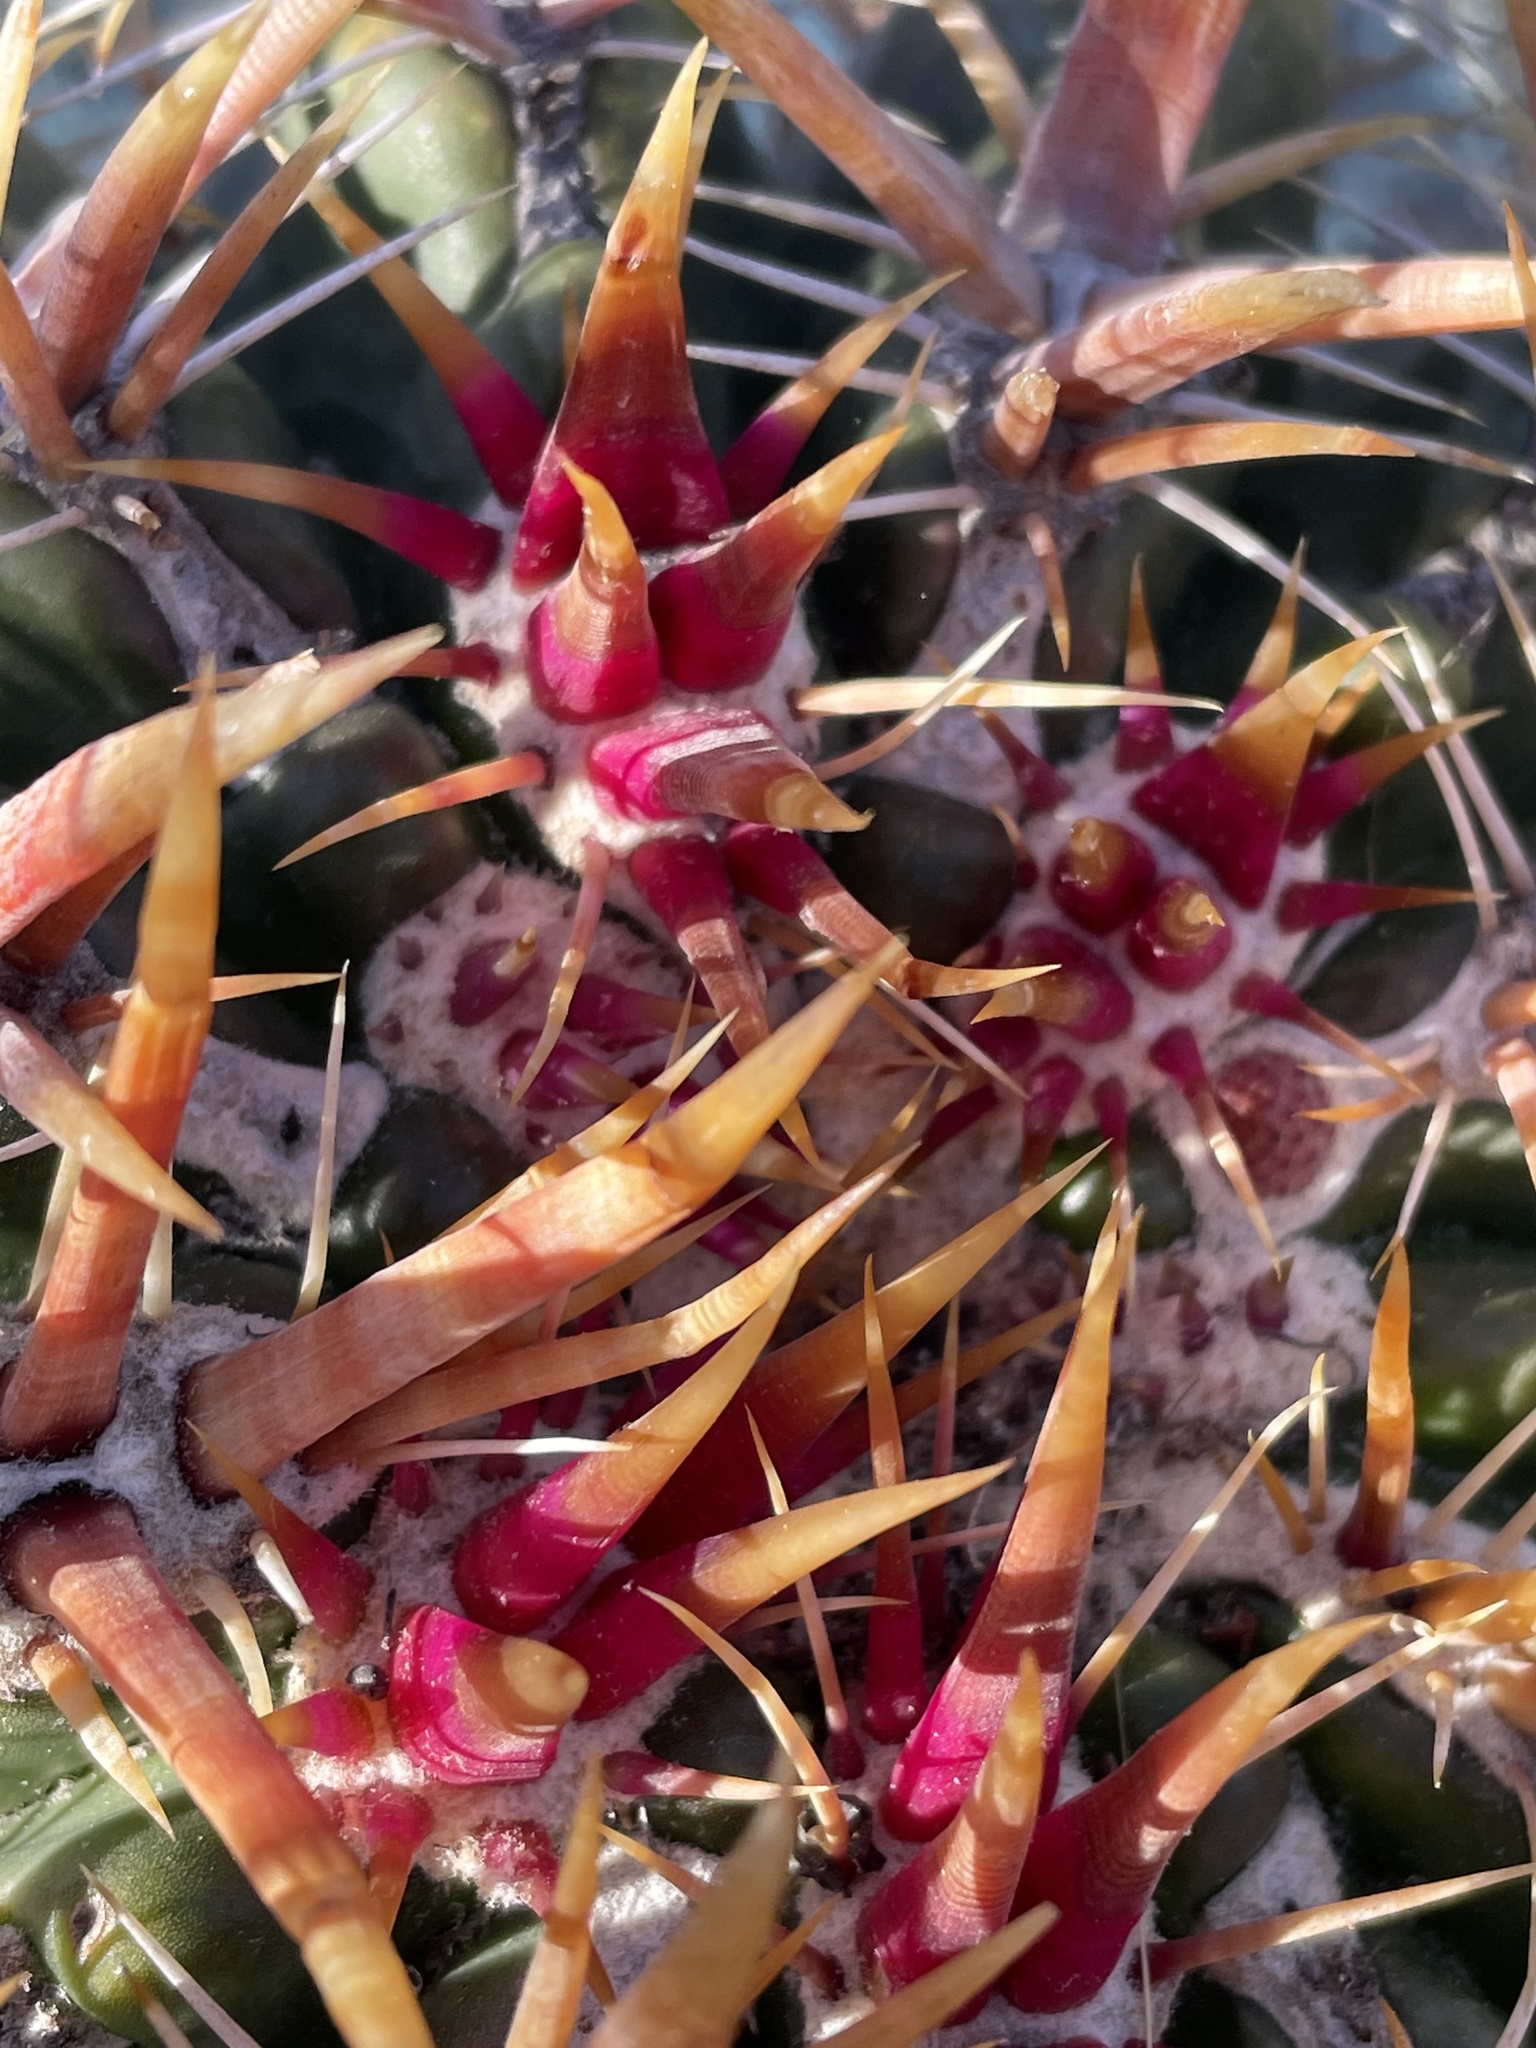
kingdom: Plantae
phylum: Tracheophyta
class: Magnoliopsida
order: Caryophyllales
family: Cactaceae
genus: Ferocactus
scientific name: Ferocactus viridescens
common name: San diego barrel cactus
